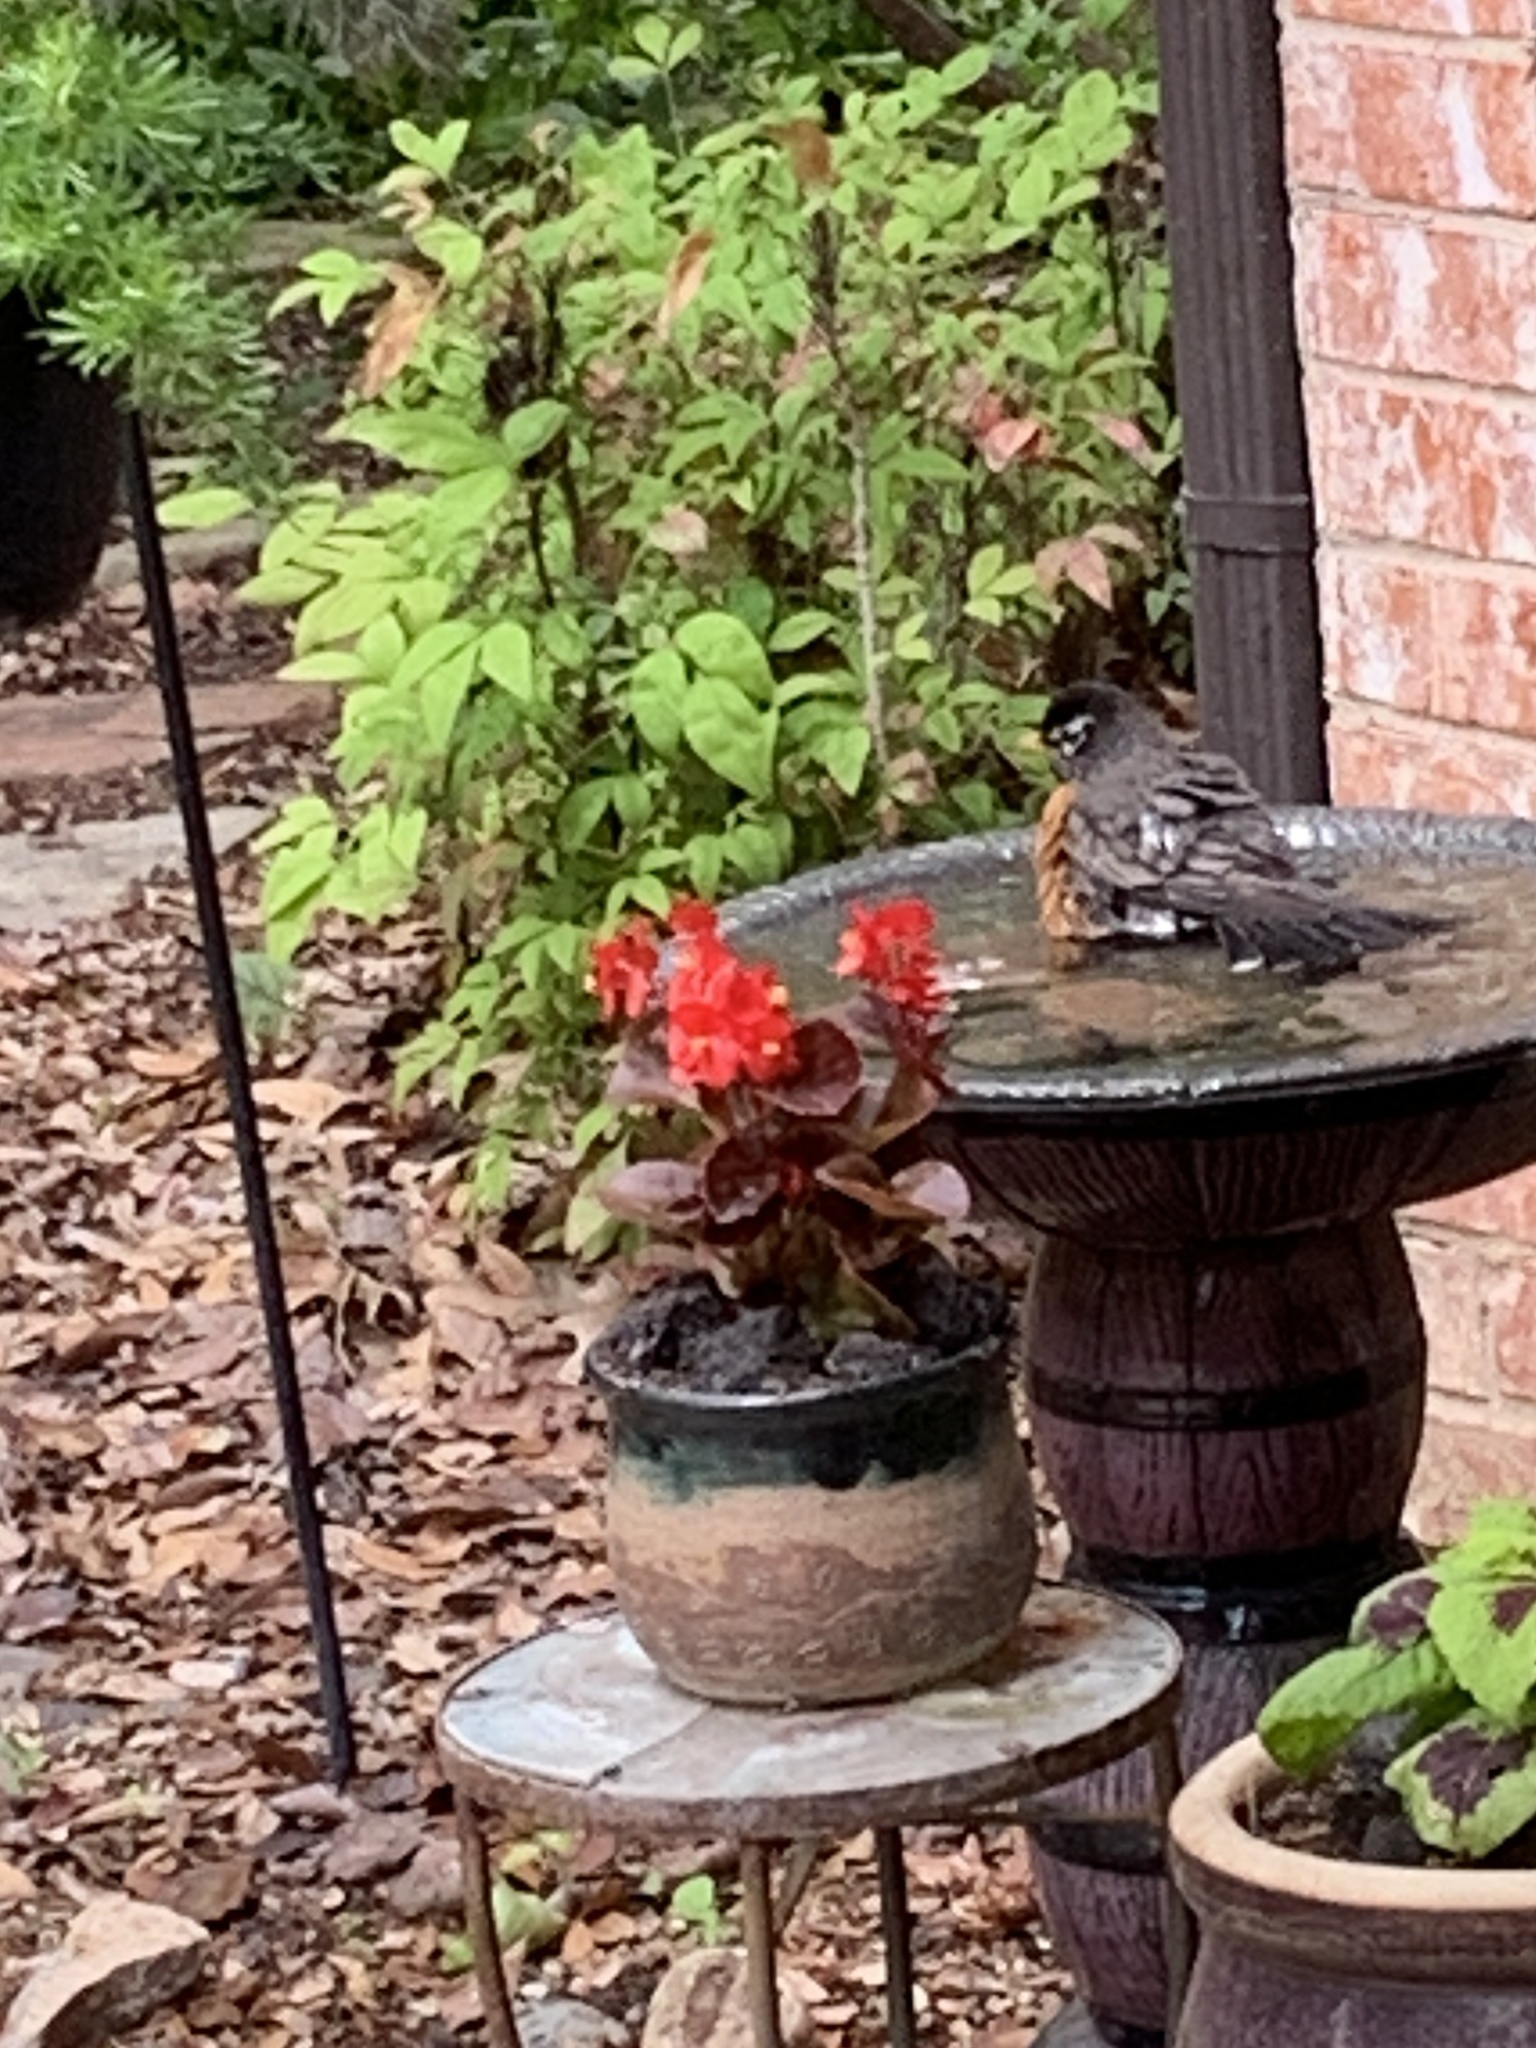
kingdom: Animalia
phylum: Chordata
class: Aves
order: Passeriformes
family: Turdidae
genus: Turdus
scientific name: Turdus migratorius
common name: American robin
